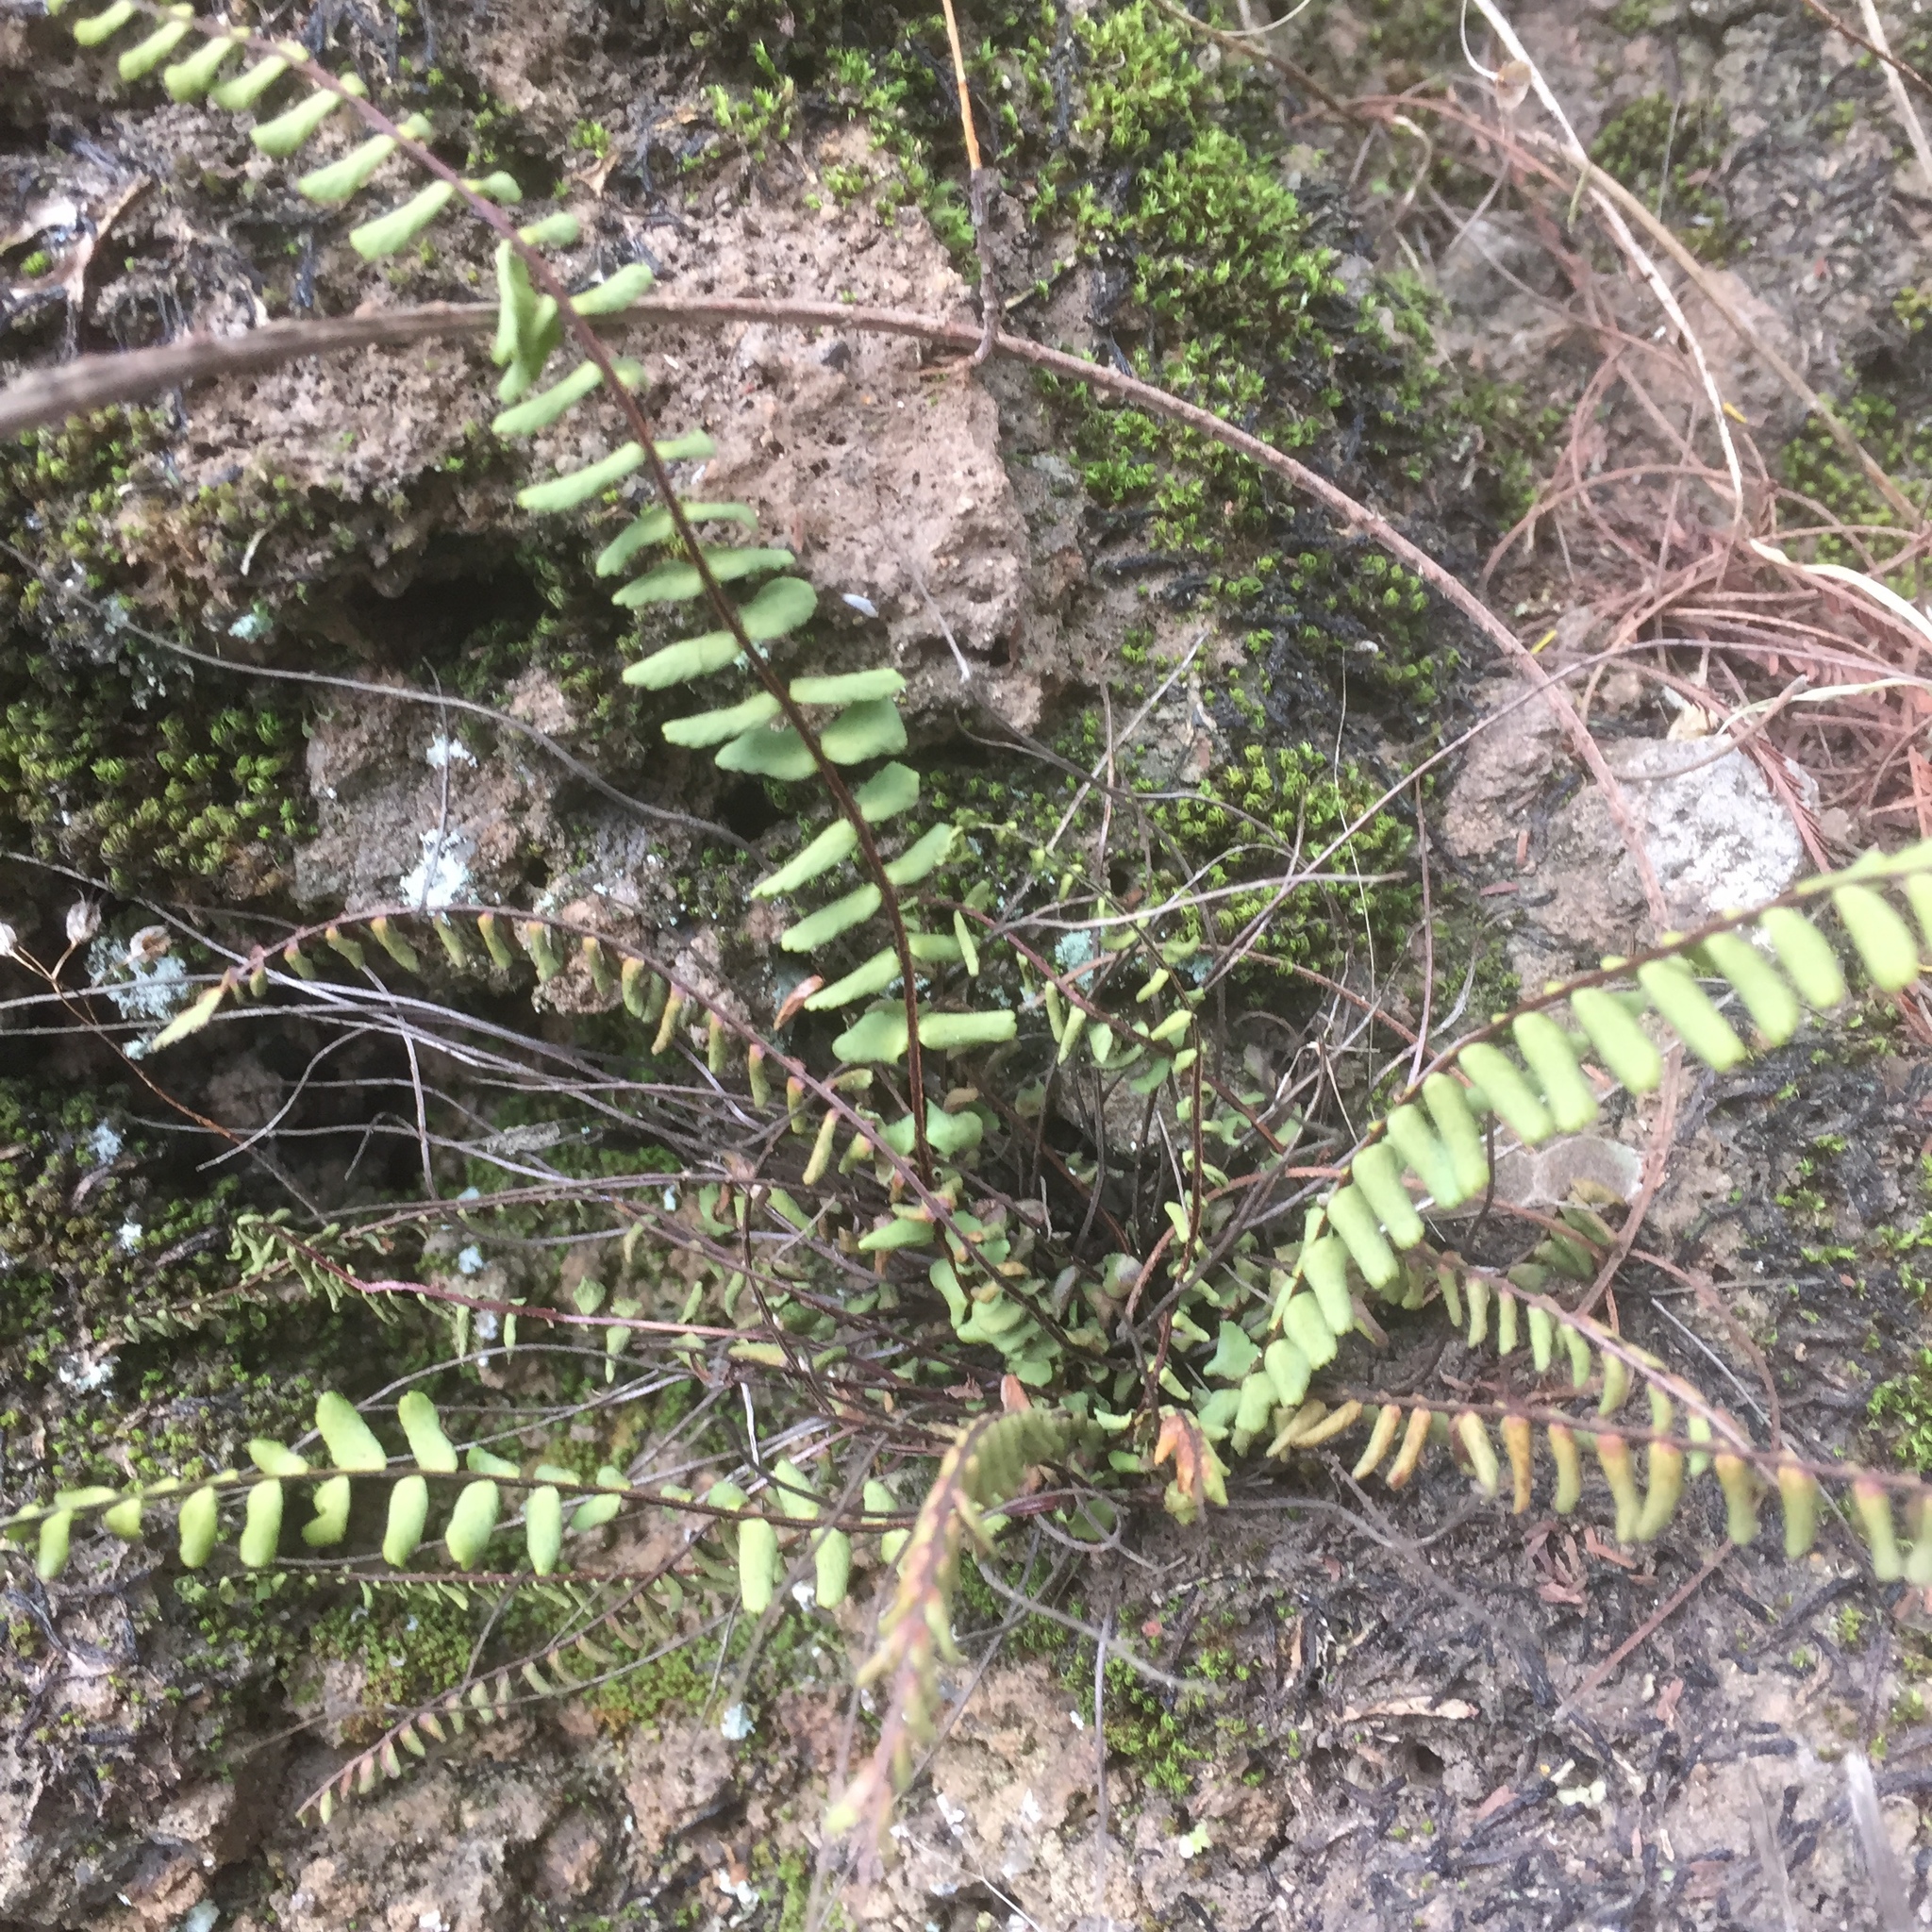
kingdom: Plantae
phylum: Tracheophyta
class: Polypodiopsida
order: Polypodiales
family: Aspleniaceae
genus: Asplenium
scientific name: Asplenium trichomanes
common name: Maidenhair spleenwort
